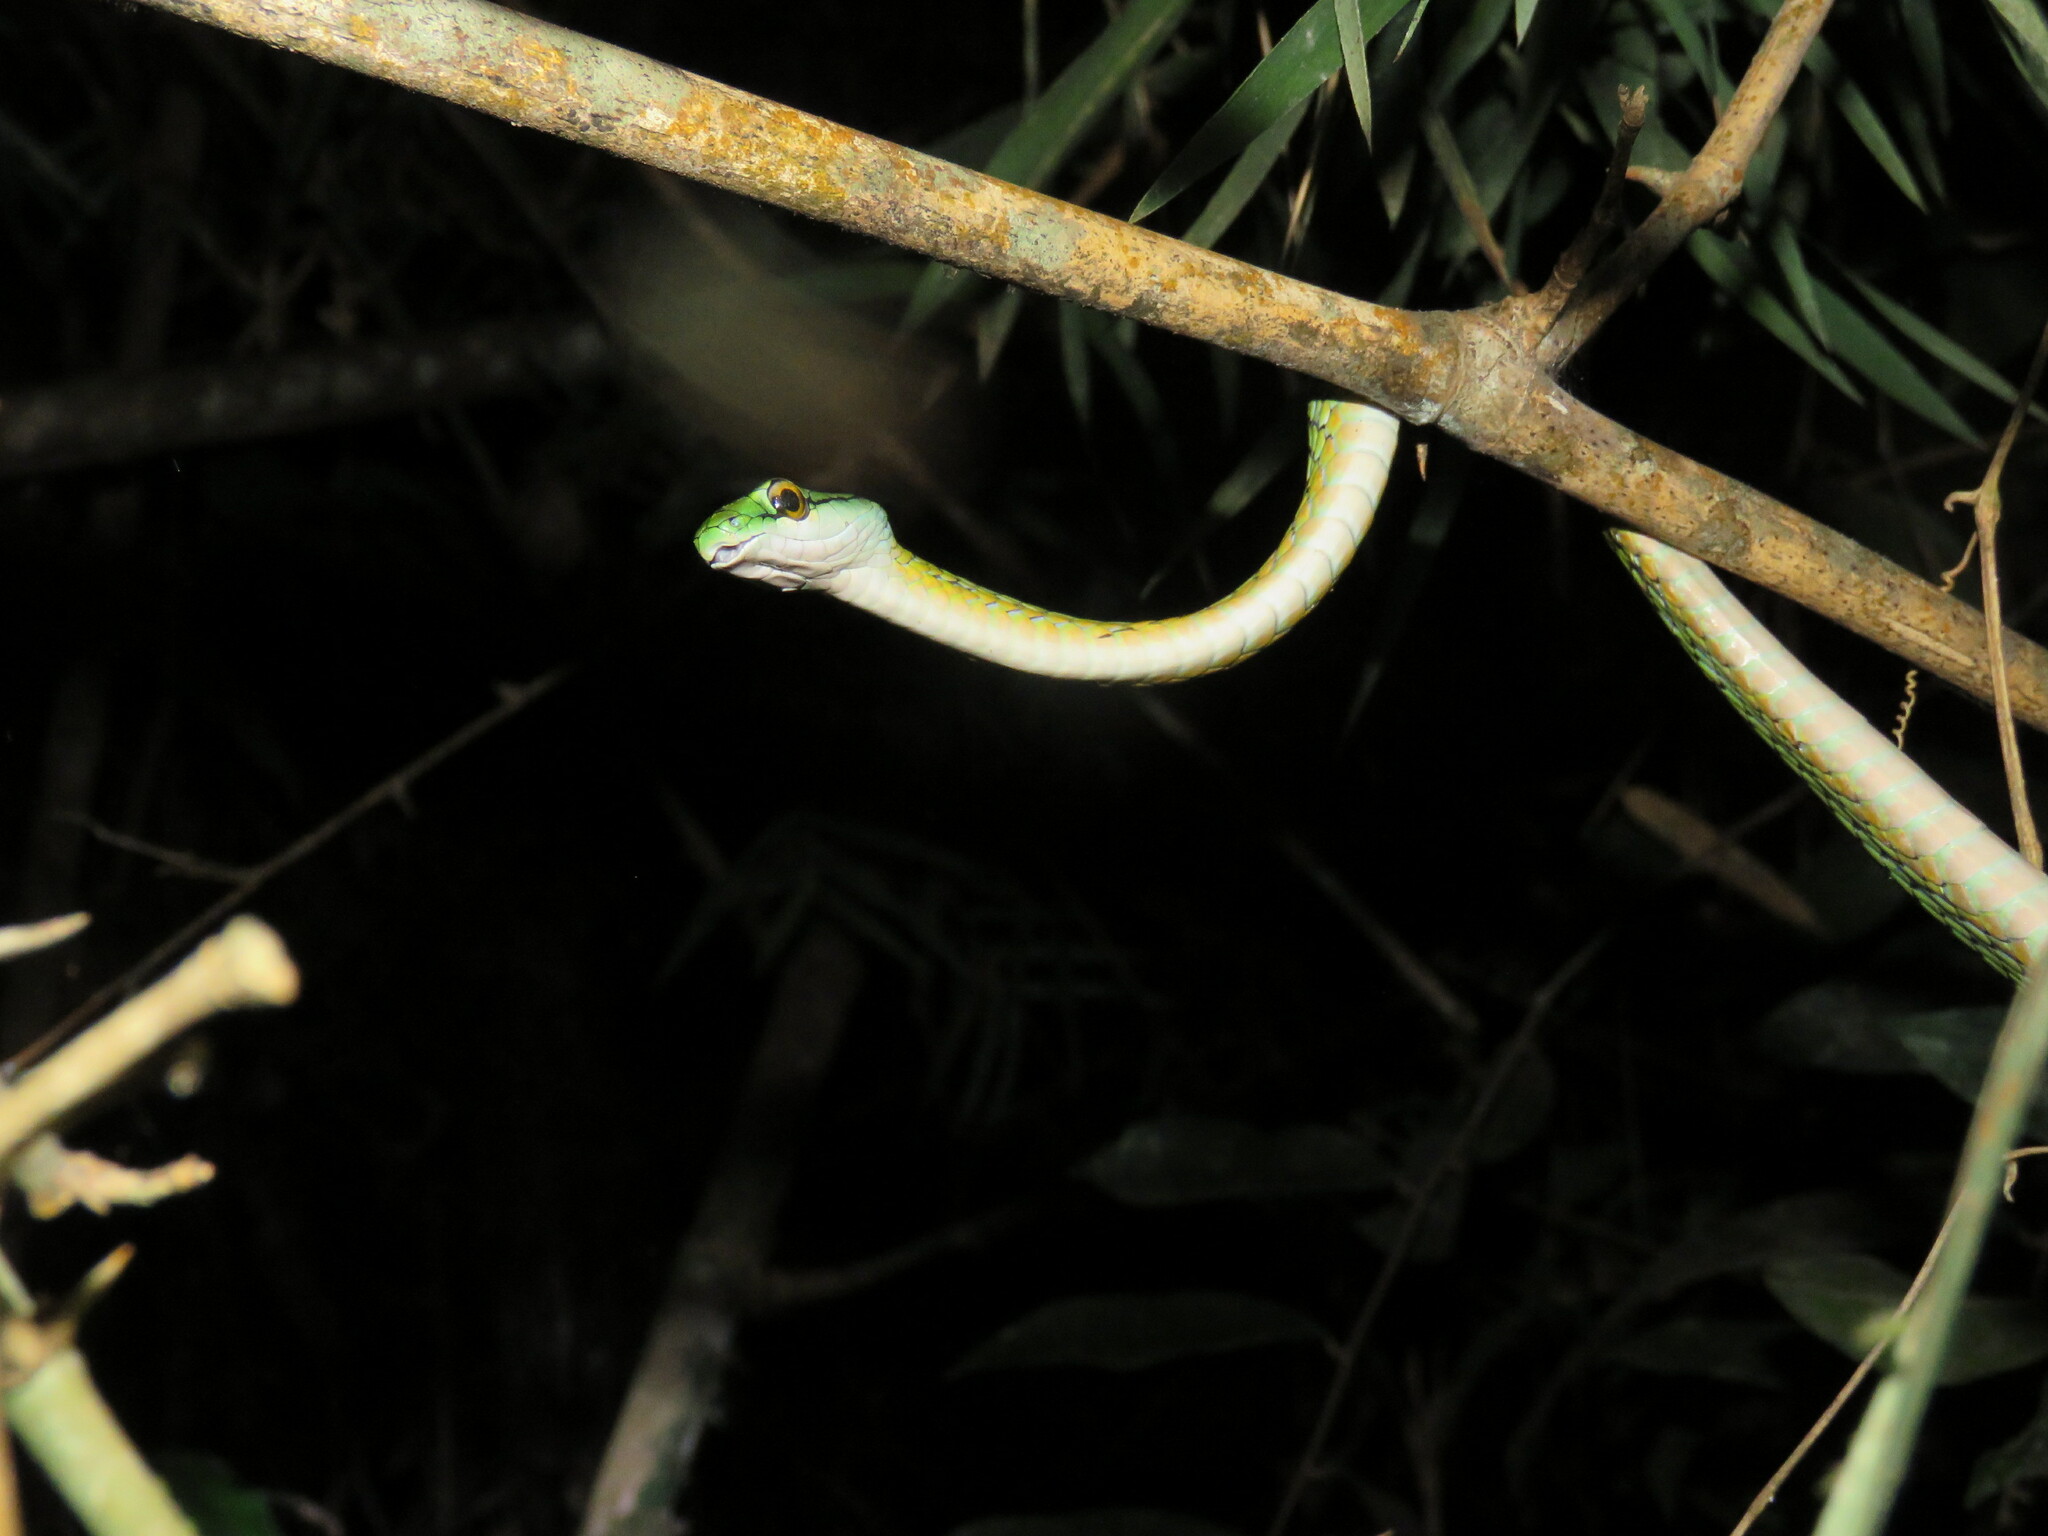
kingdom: Animalia
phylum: Chordata
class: Squamata
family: Colubridae
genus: Leptophis
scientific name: Leptophis ahaetulla
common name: Parrot snake
